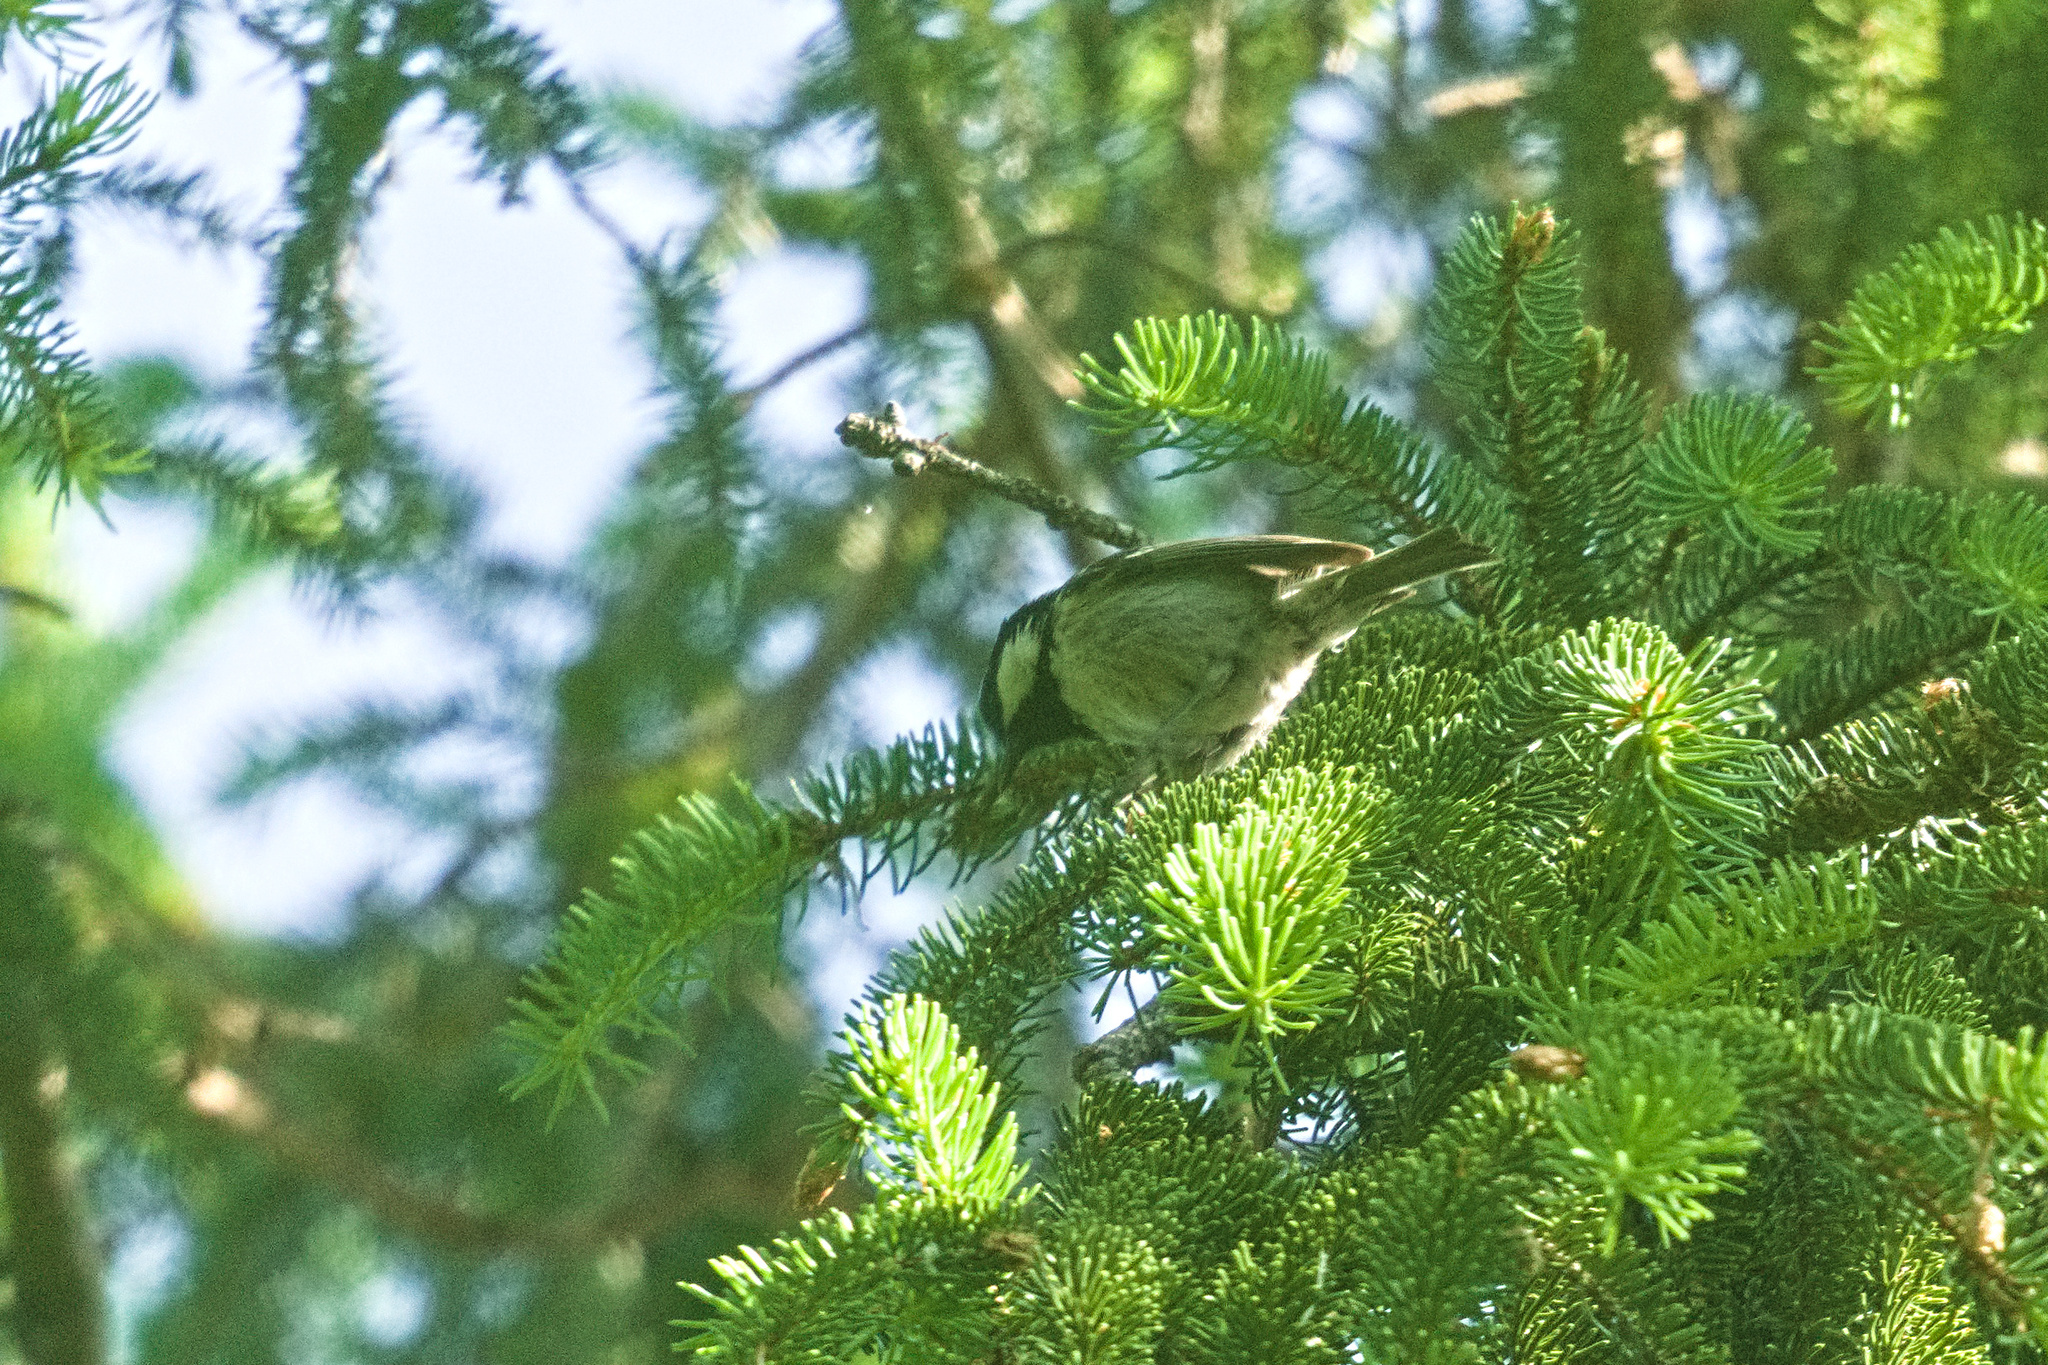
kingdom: Animalia
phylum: Chordata
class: Aves
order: Passeriformes
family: Paridae
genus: Periparus
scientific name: Periparus ater
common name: Coal tit
